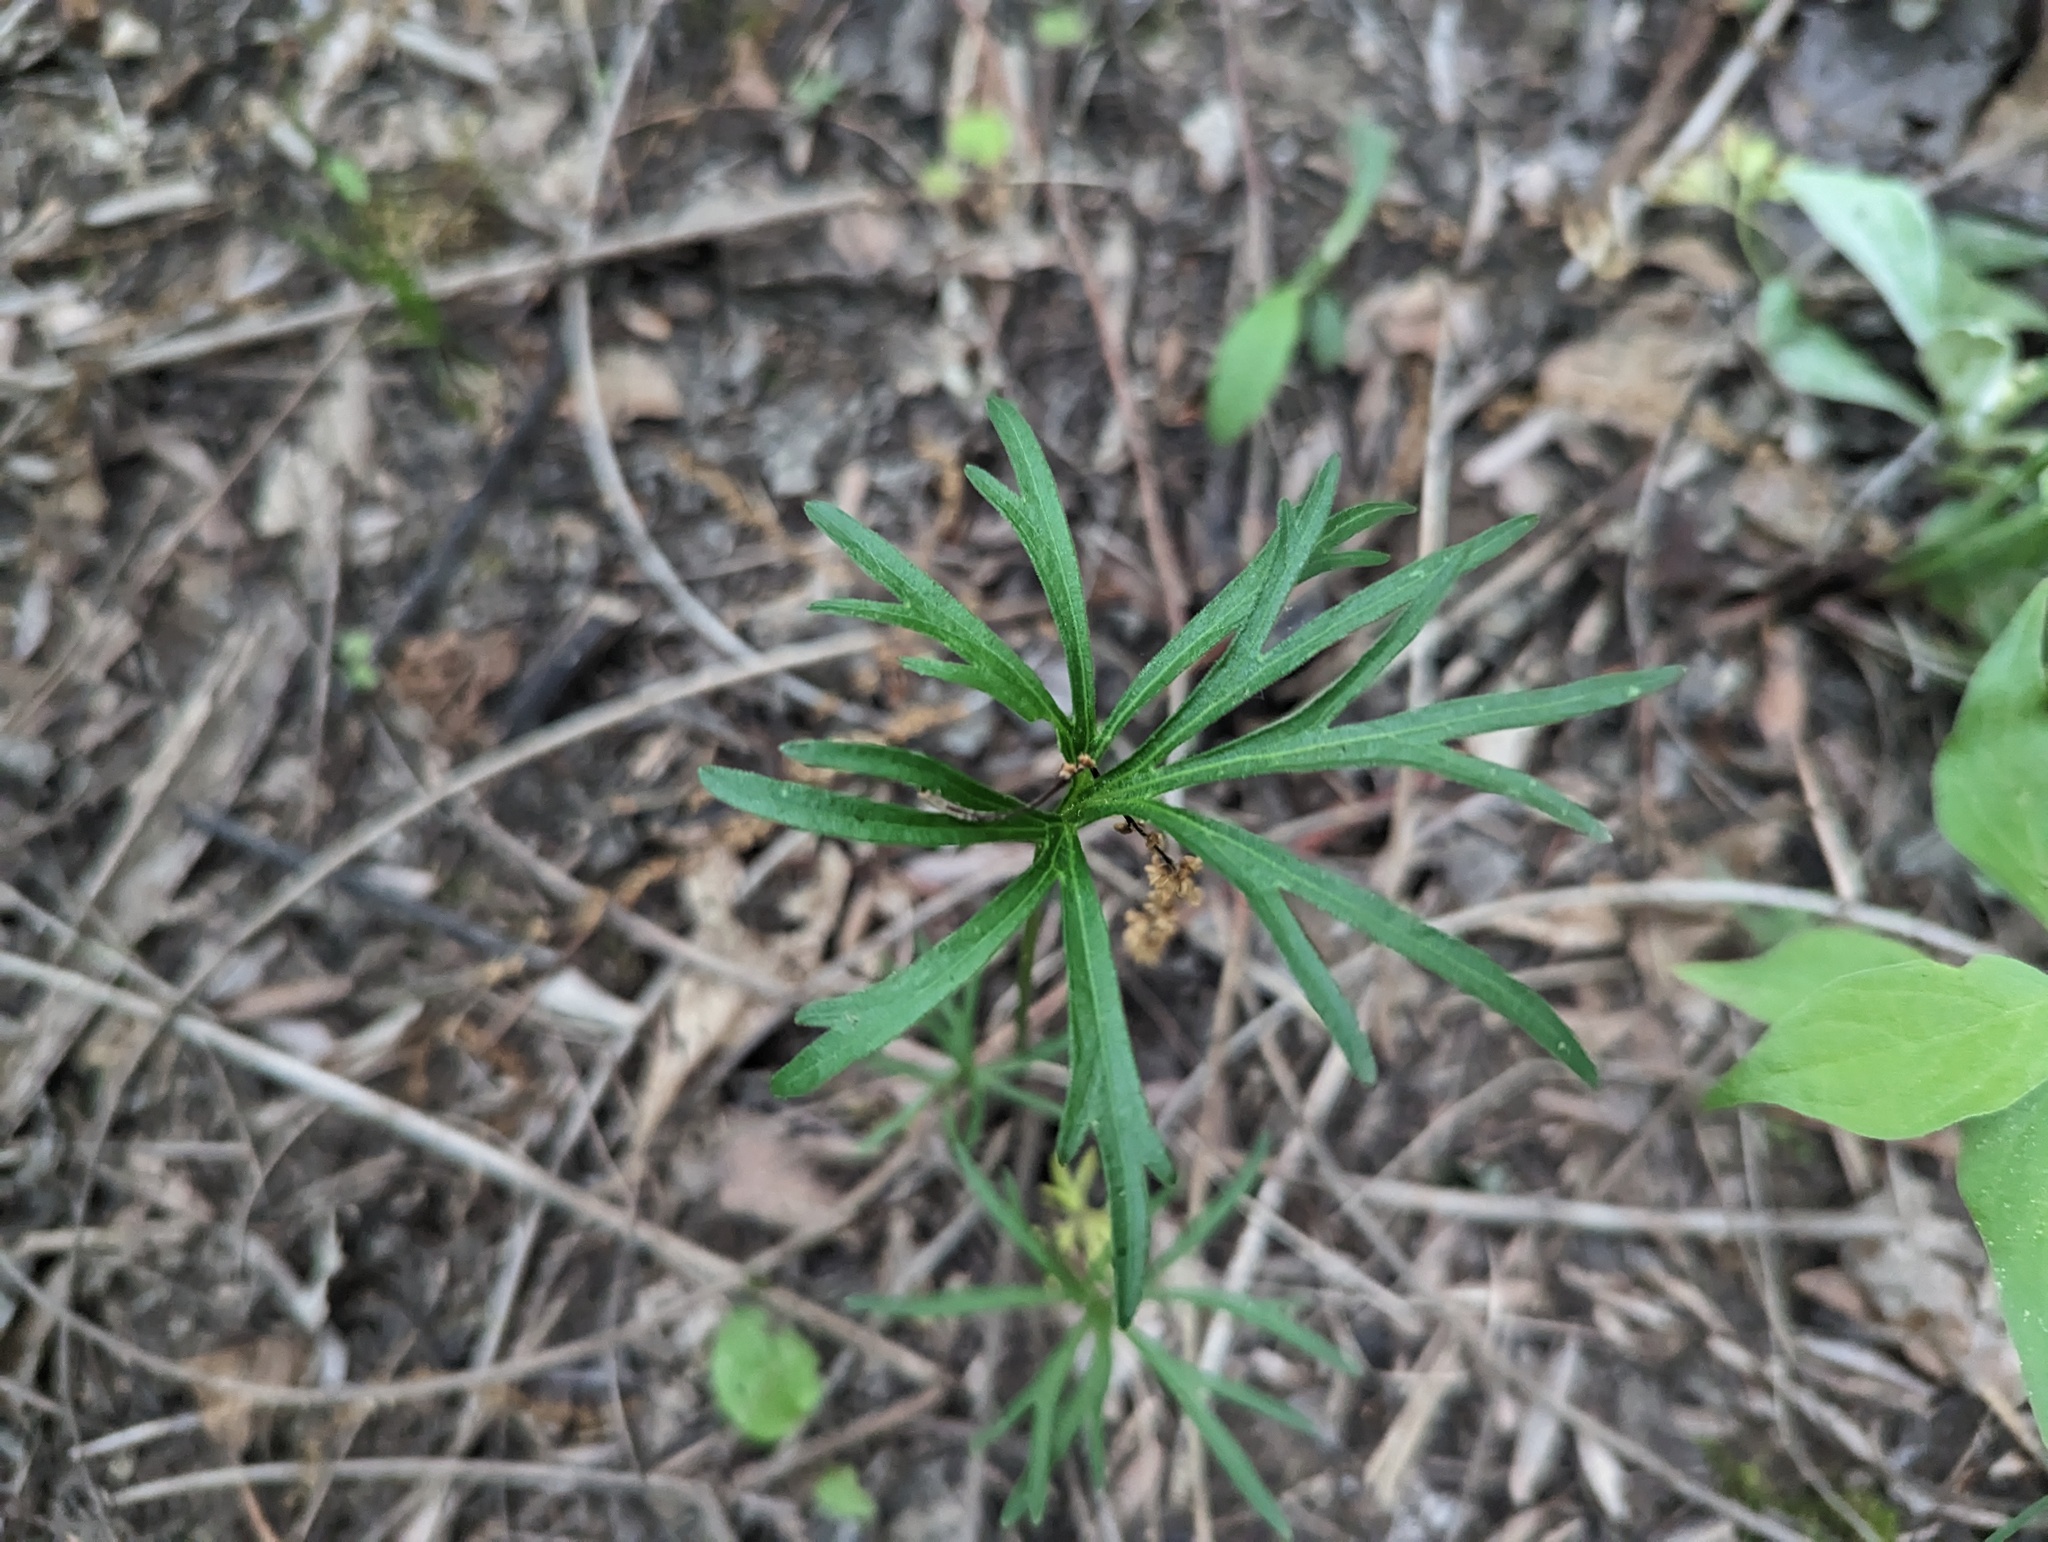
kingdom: Plantae
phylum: Tracheophyta
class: Magnoliopsida
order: Malpighiales
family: Violaceae
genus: Viola
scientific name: Viola pedata
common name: Pansy violet
